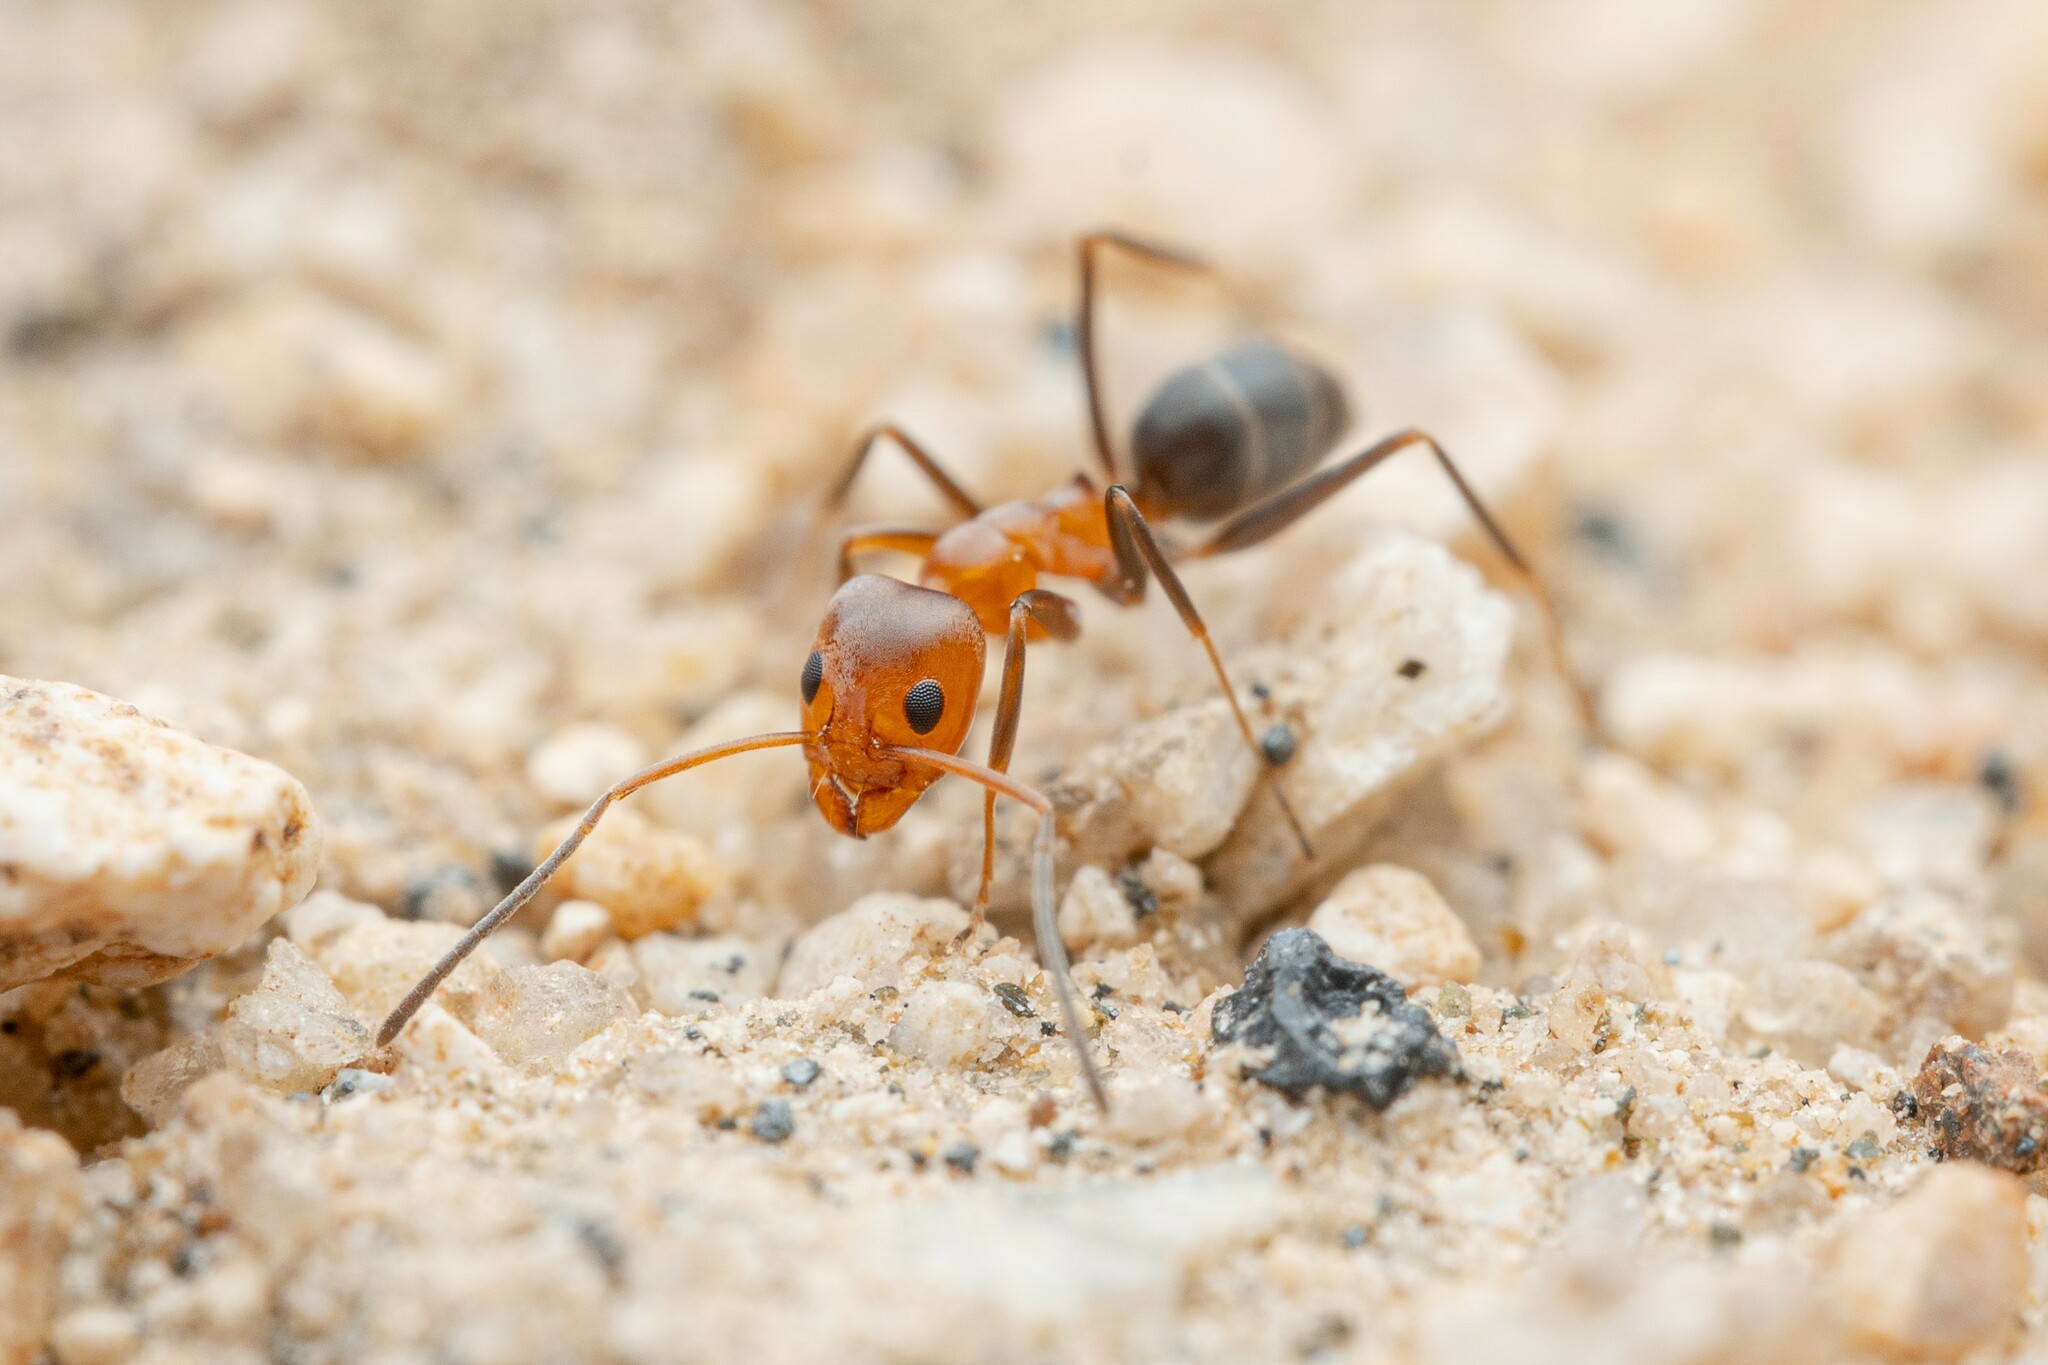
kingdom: Animalia
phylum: Arthropoda
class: Insecta
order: Hymenoptera
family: Formicidae
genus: Dorymyrmex
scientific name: Dorymyrmex bicolor
